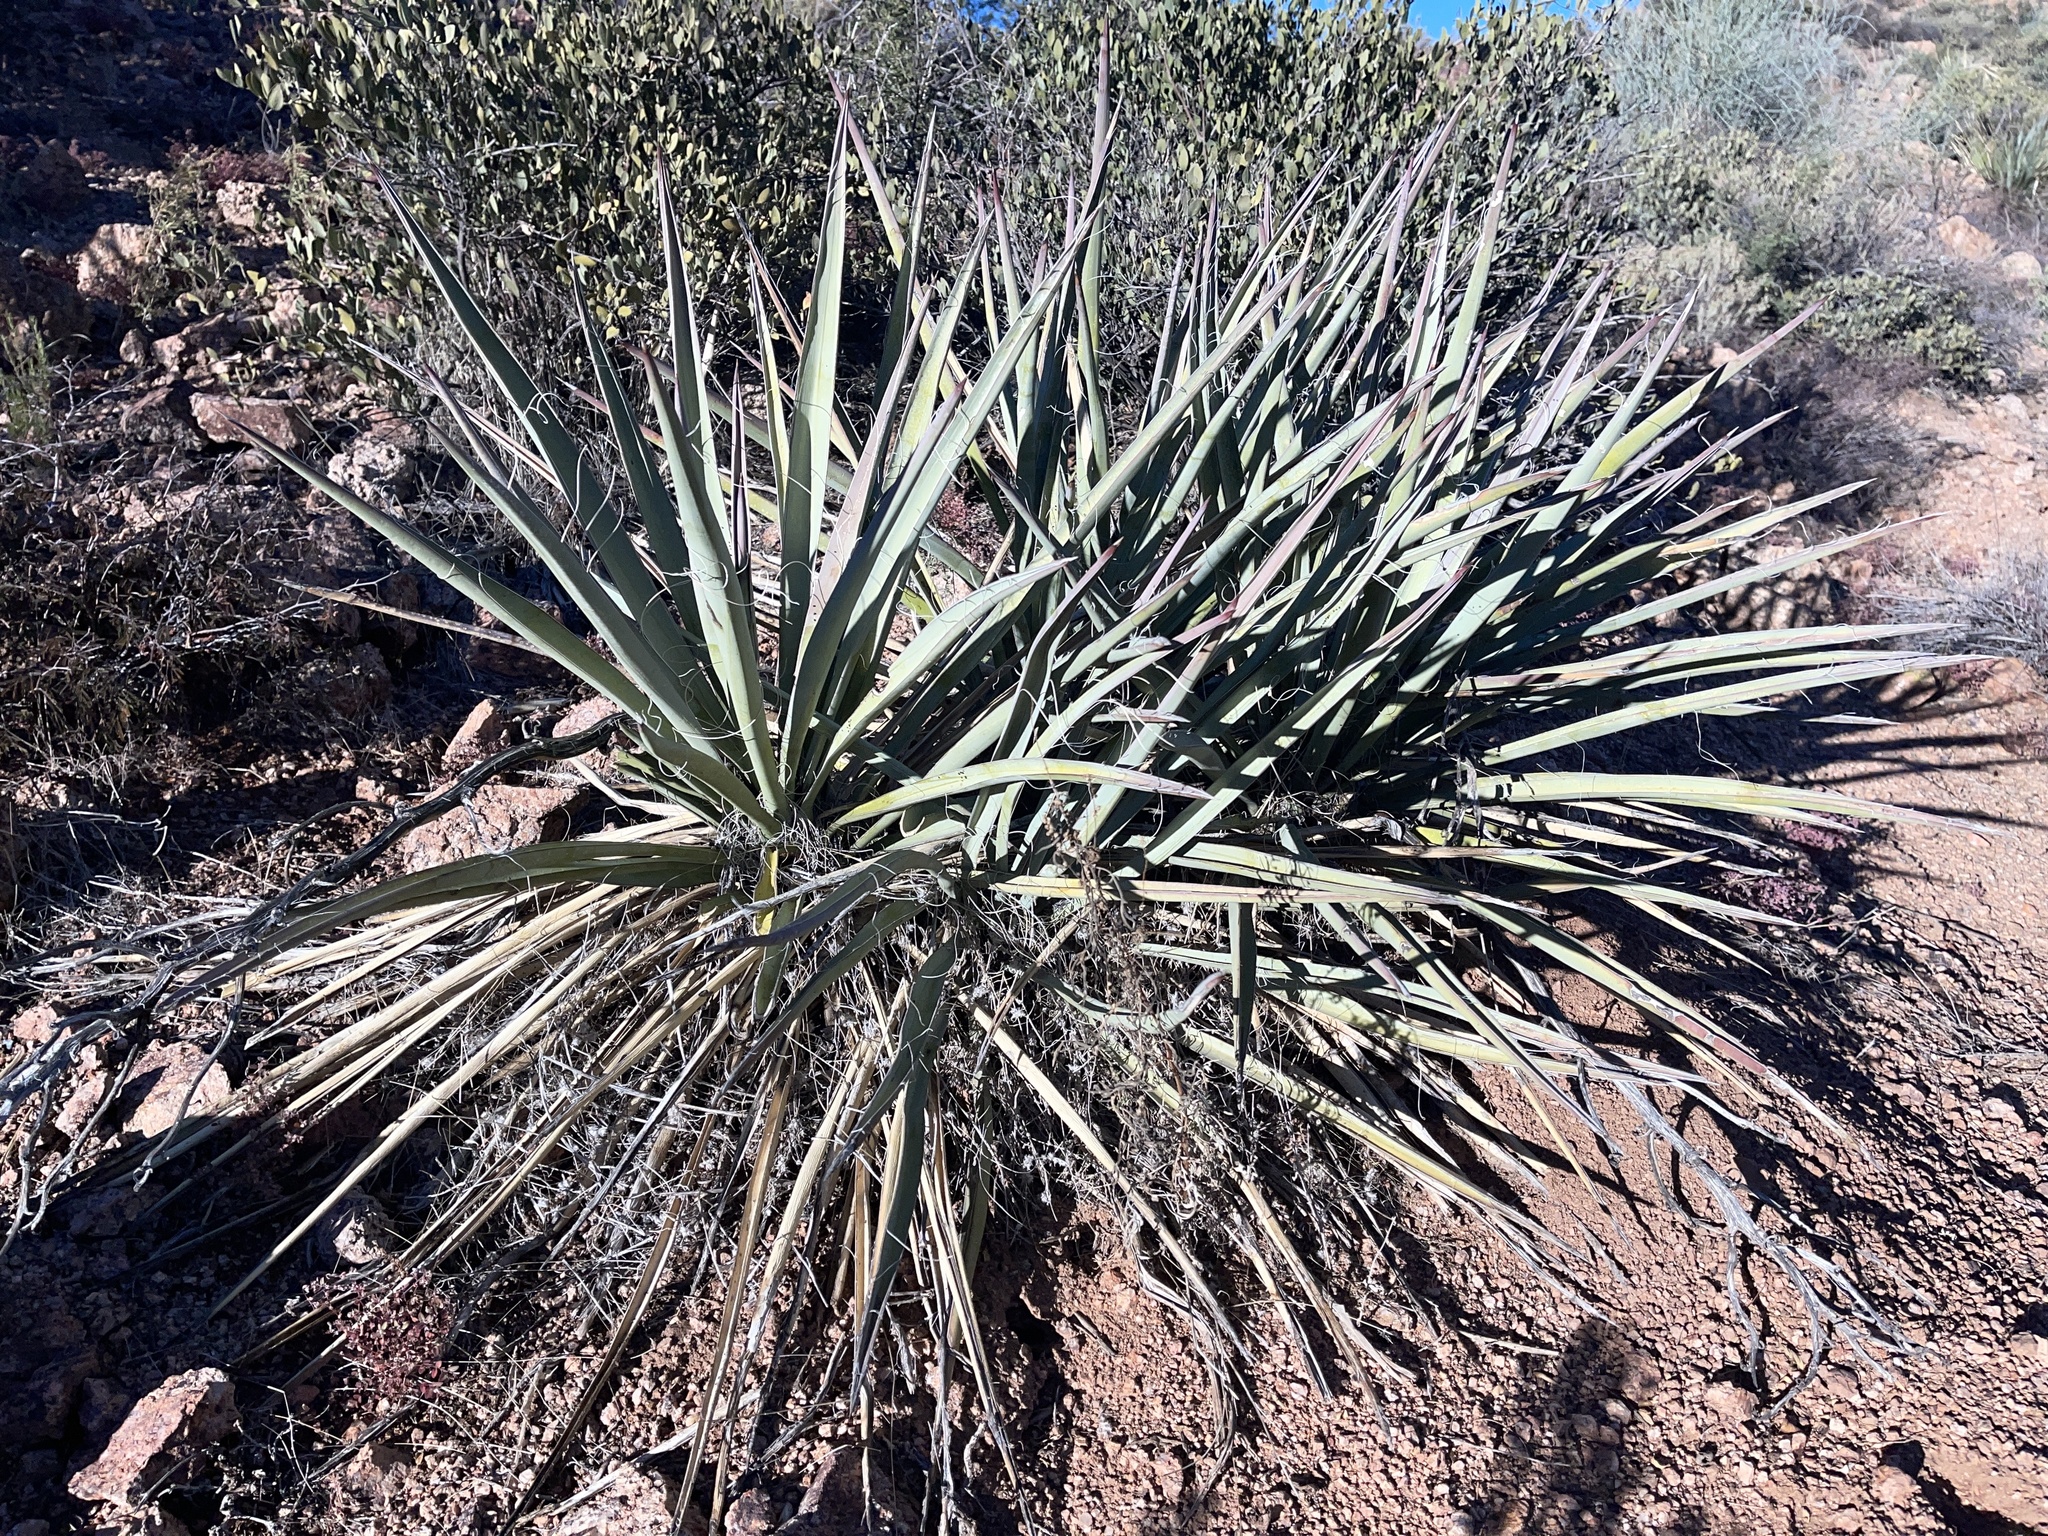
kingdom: Plantae
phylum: Tracheophyta
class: Liliopsida
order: Asparagales
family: Asparagaceae
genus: Yucca
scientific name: Yucca baccata
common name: Banana yucca
